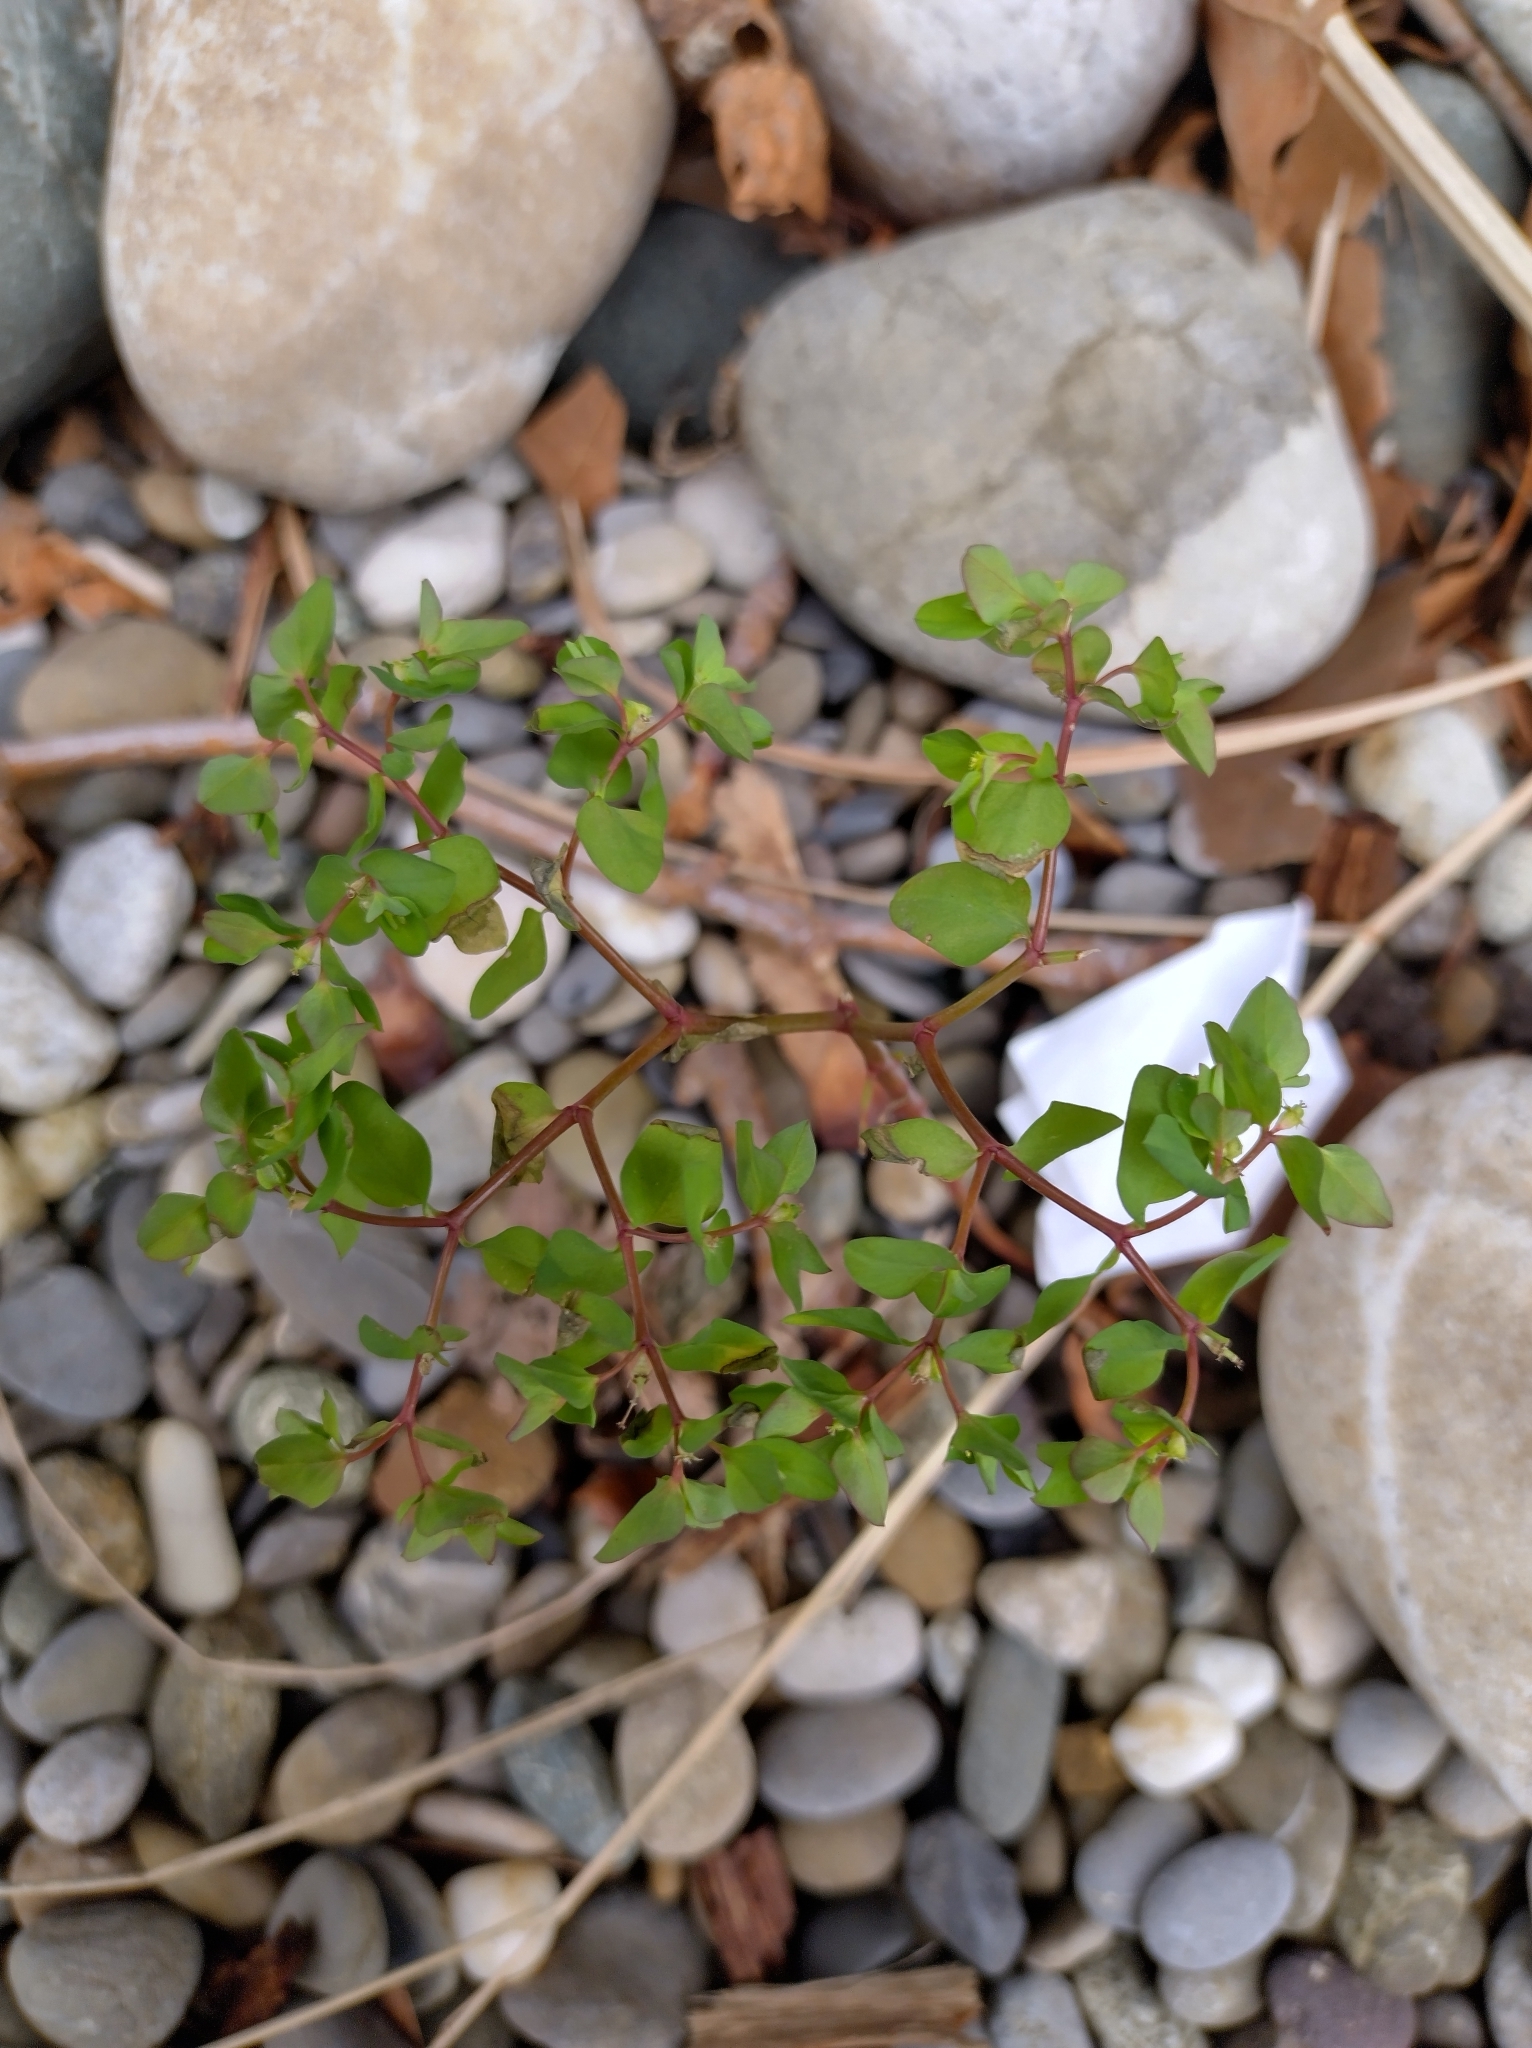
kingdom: Plantae
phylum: Tracheophyta
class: Magnoliopsida
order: Malpighiales
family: Euphorbiaceae
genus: Euphorbia
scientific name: Euphorbia peplus
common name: Petty spurge
